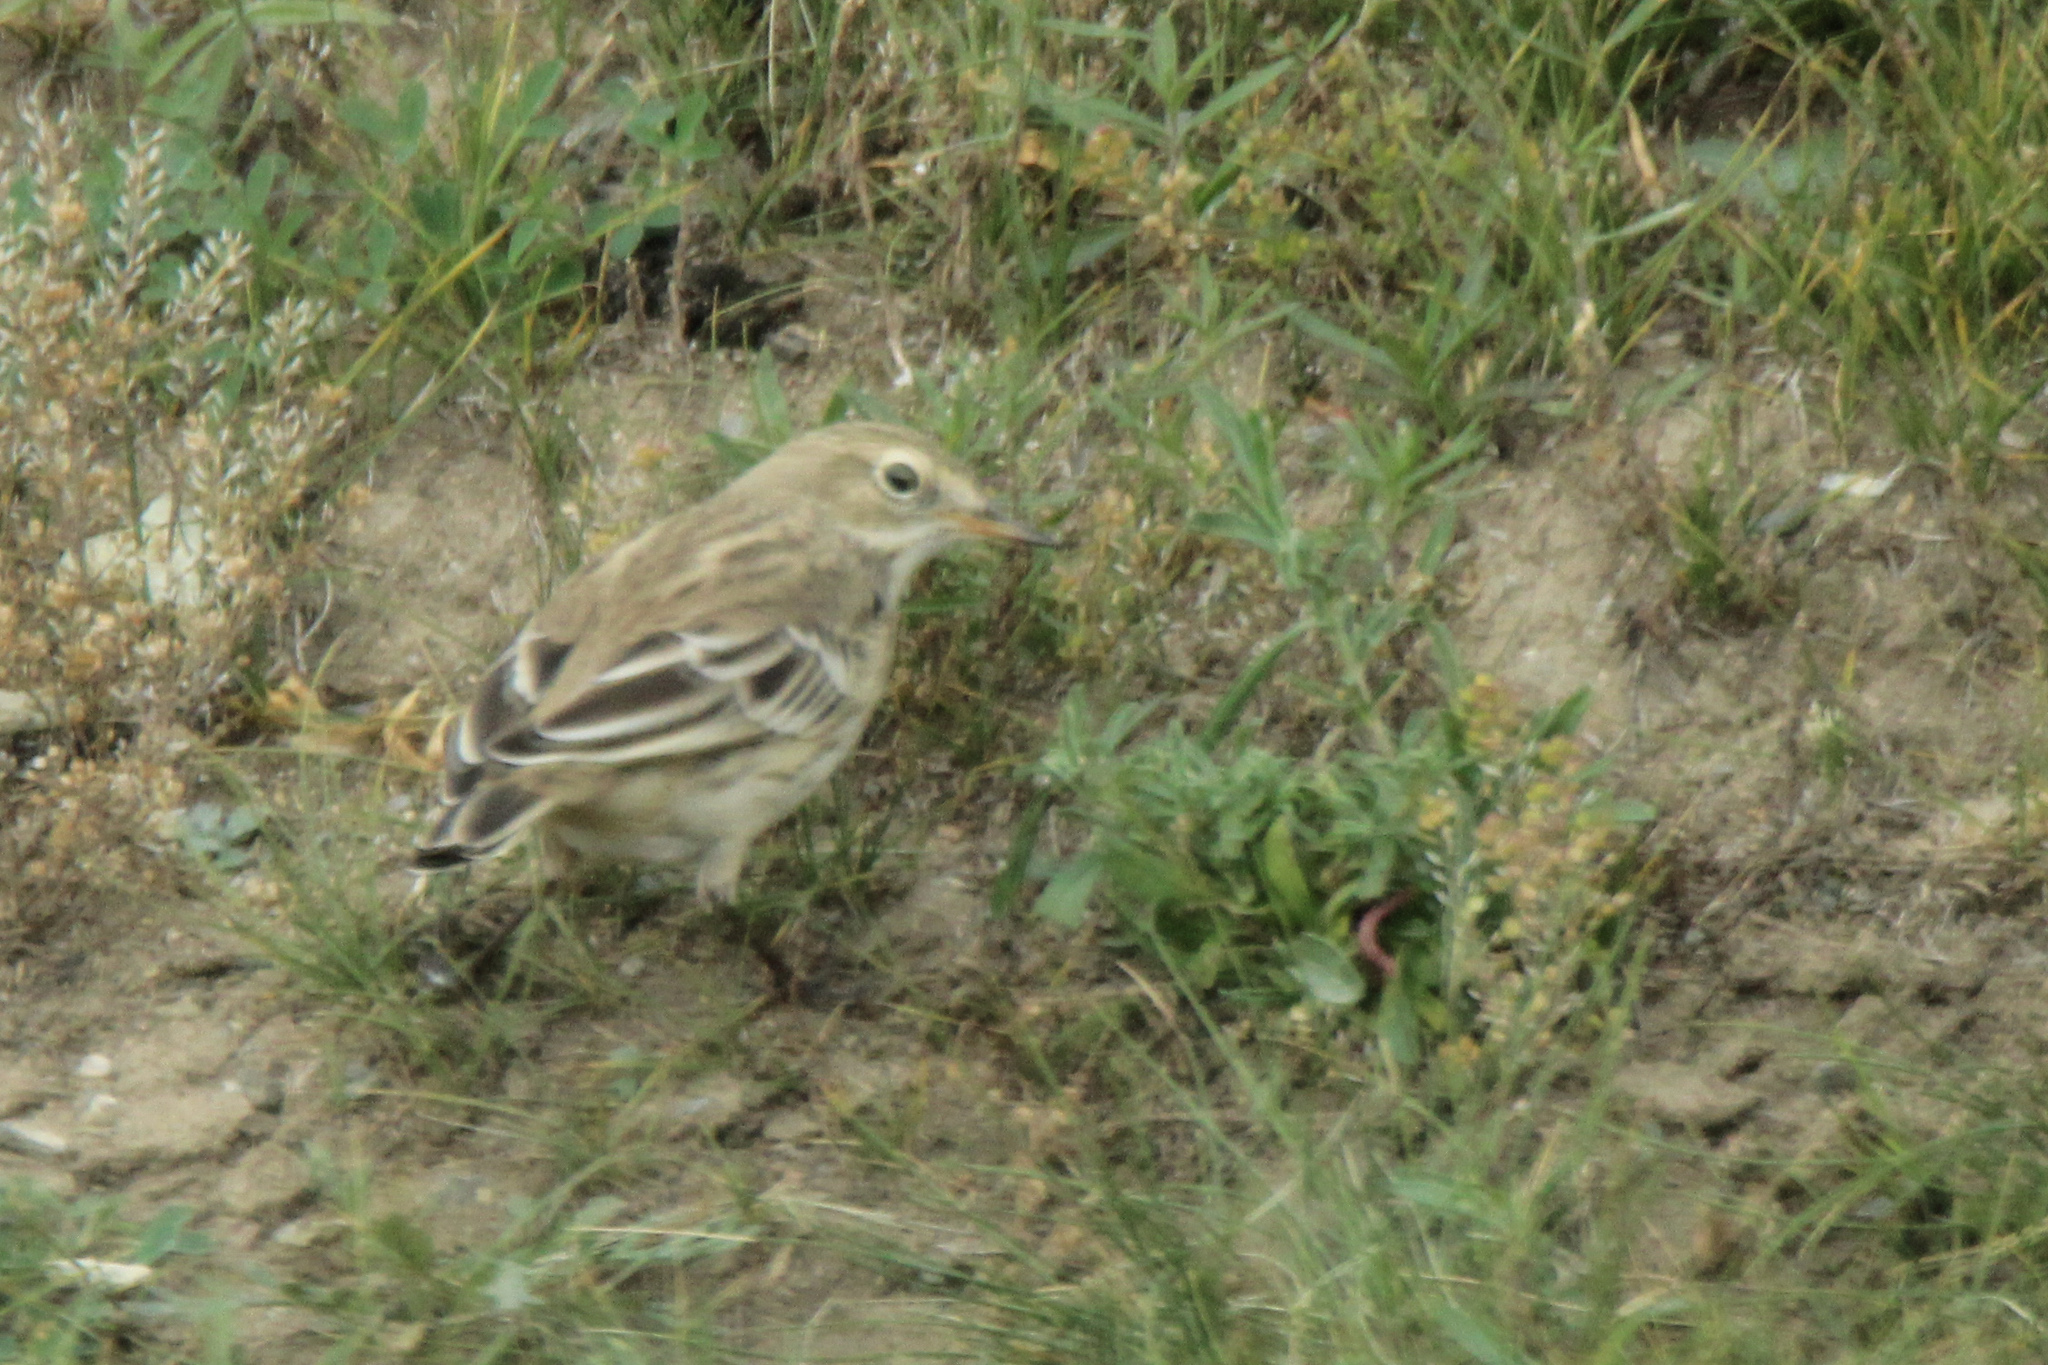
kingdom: Animalia
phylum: Chordata
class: Aves
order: Passeriformes
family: Motacillidae
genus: Anthus
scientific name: Anthus spinoletta
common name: Water pipit
